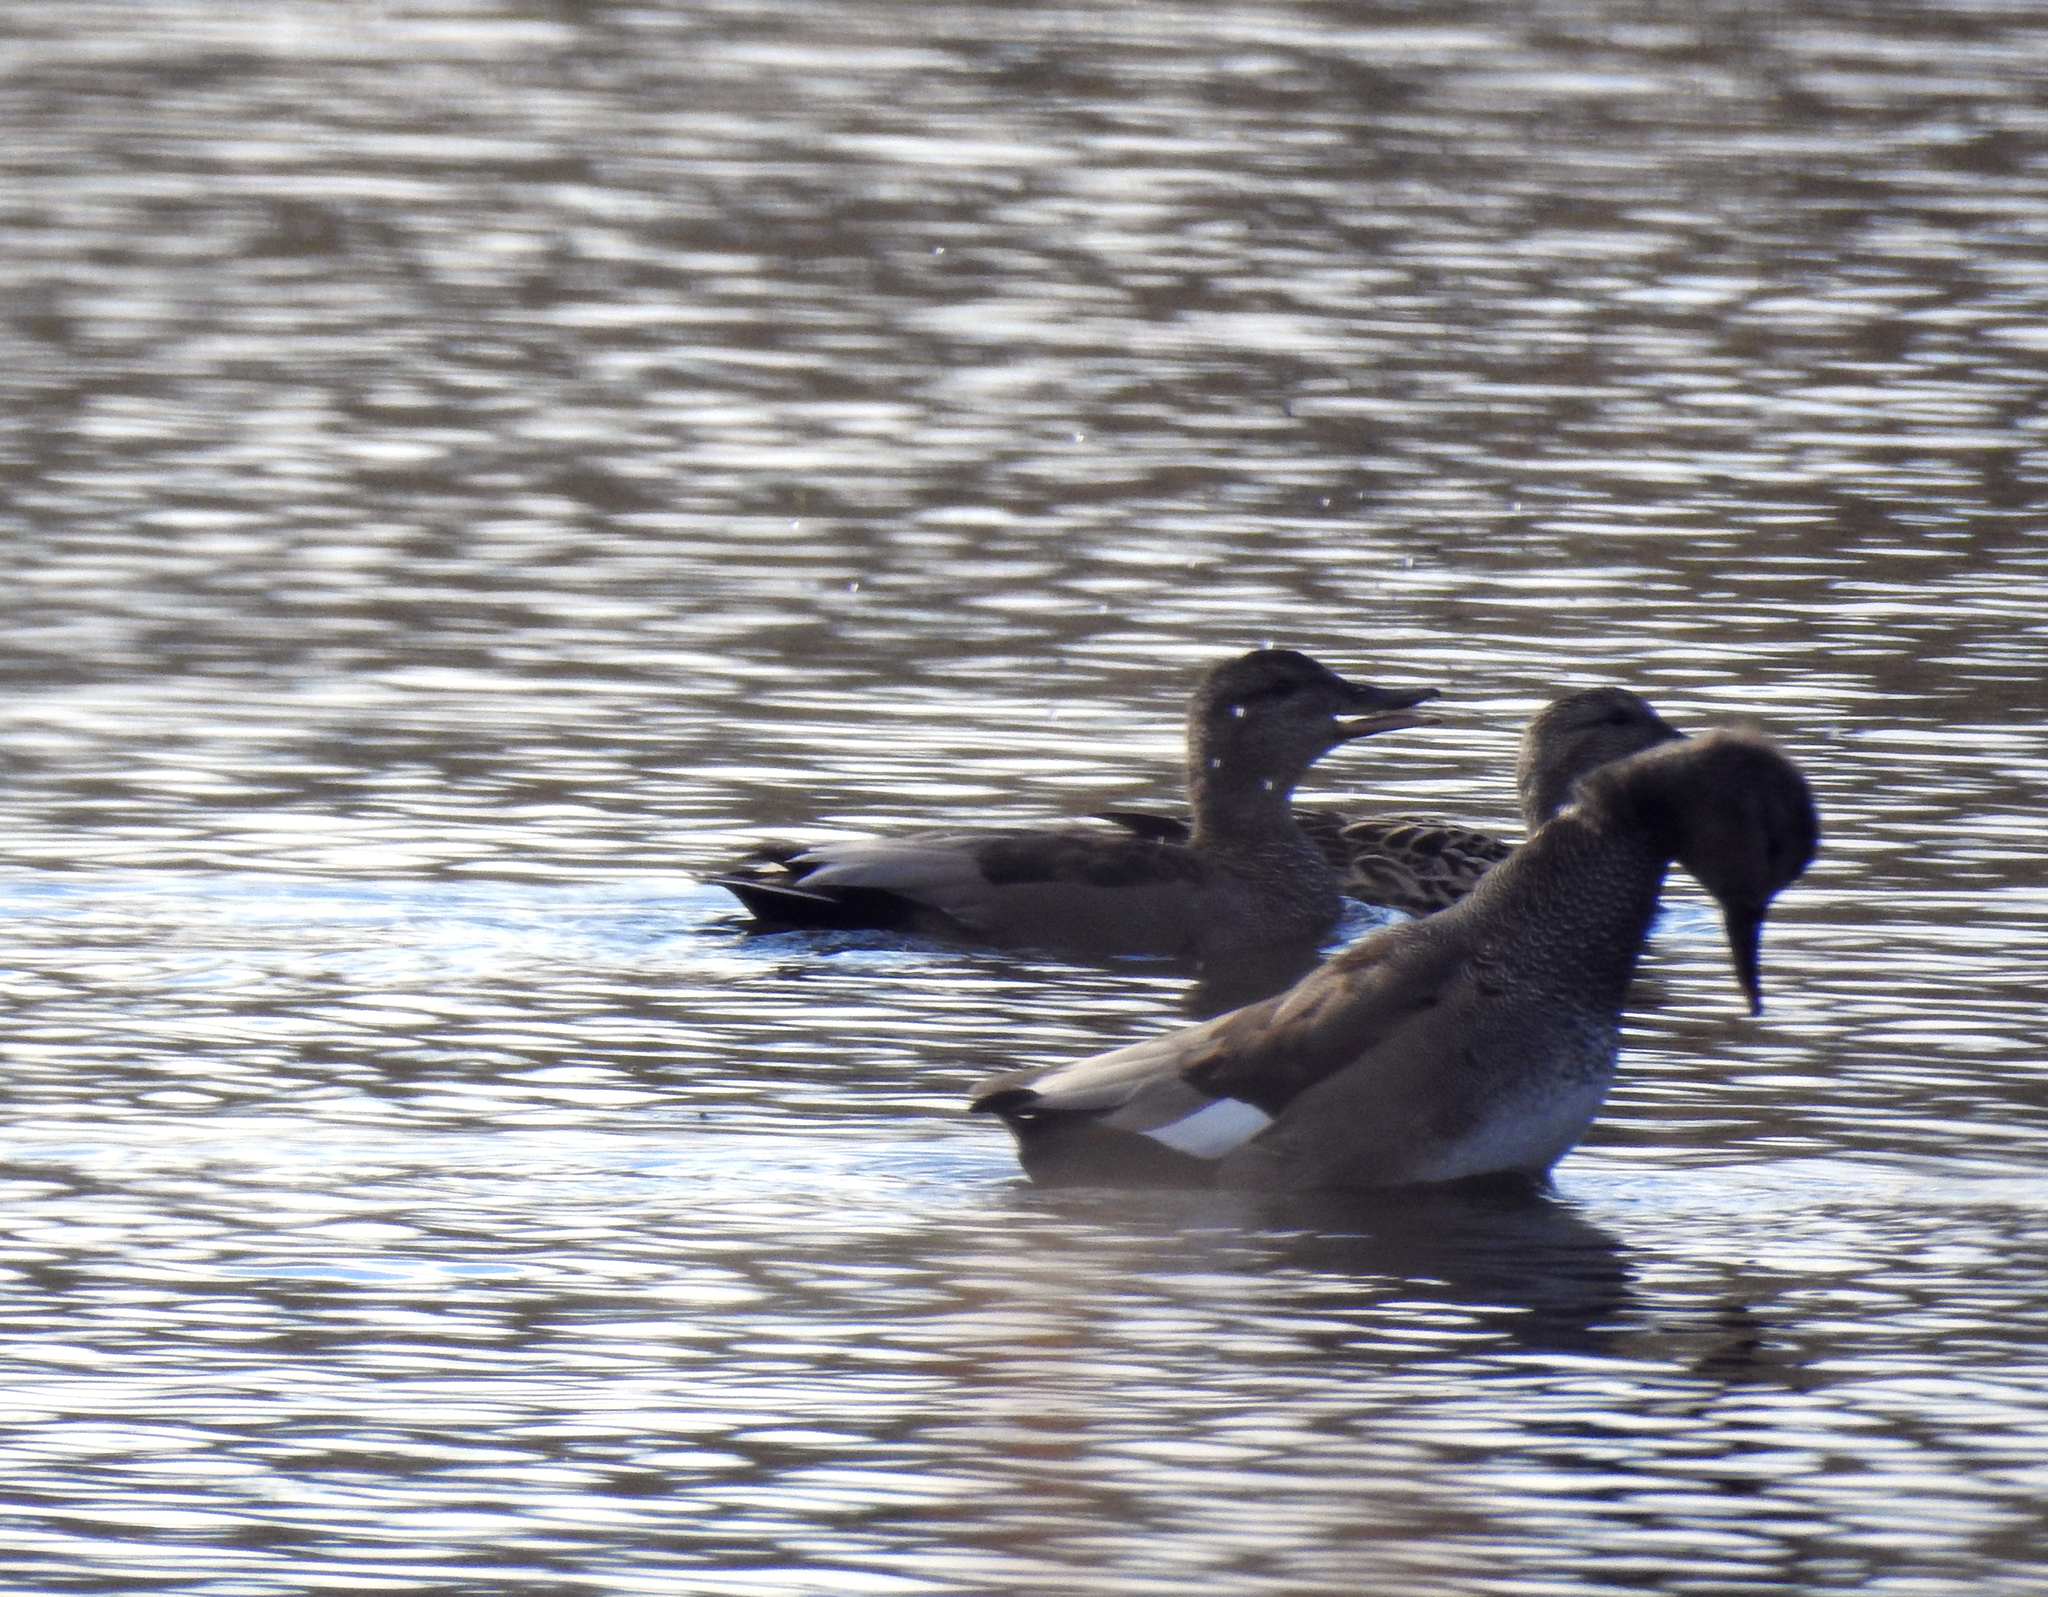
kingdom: Animalia
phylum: Chordata
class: Aves
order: Anseriformes
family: Anatidae
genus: Mareca
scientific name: Mareca strepera
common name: Gadwall
